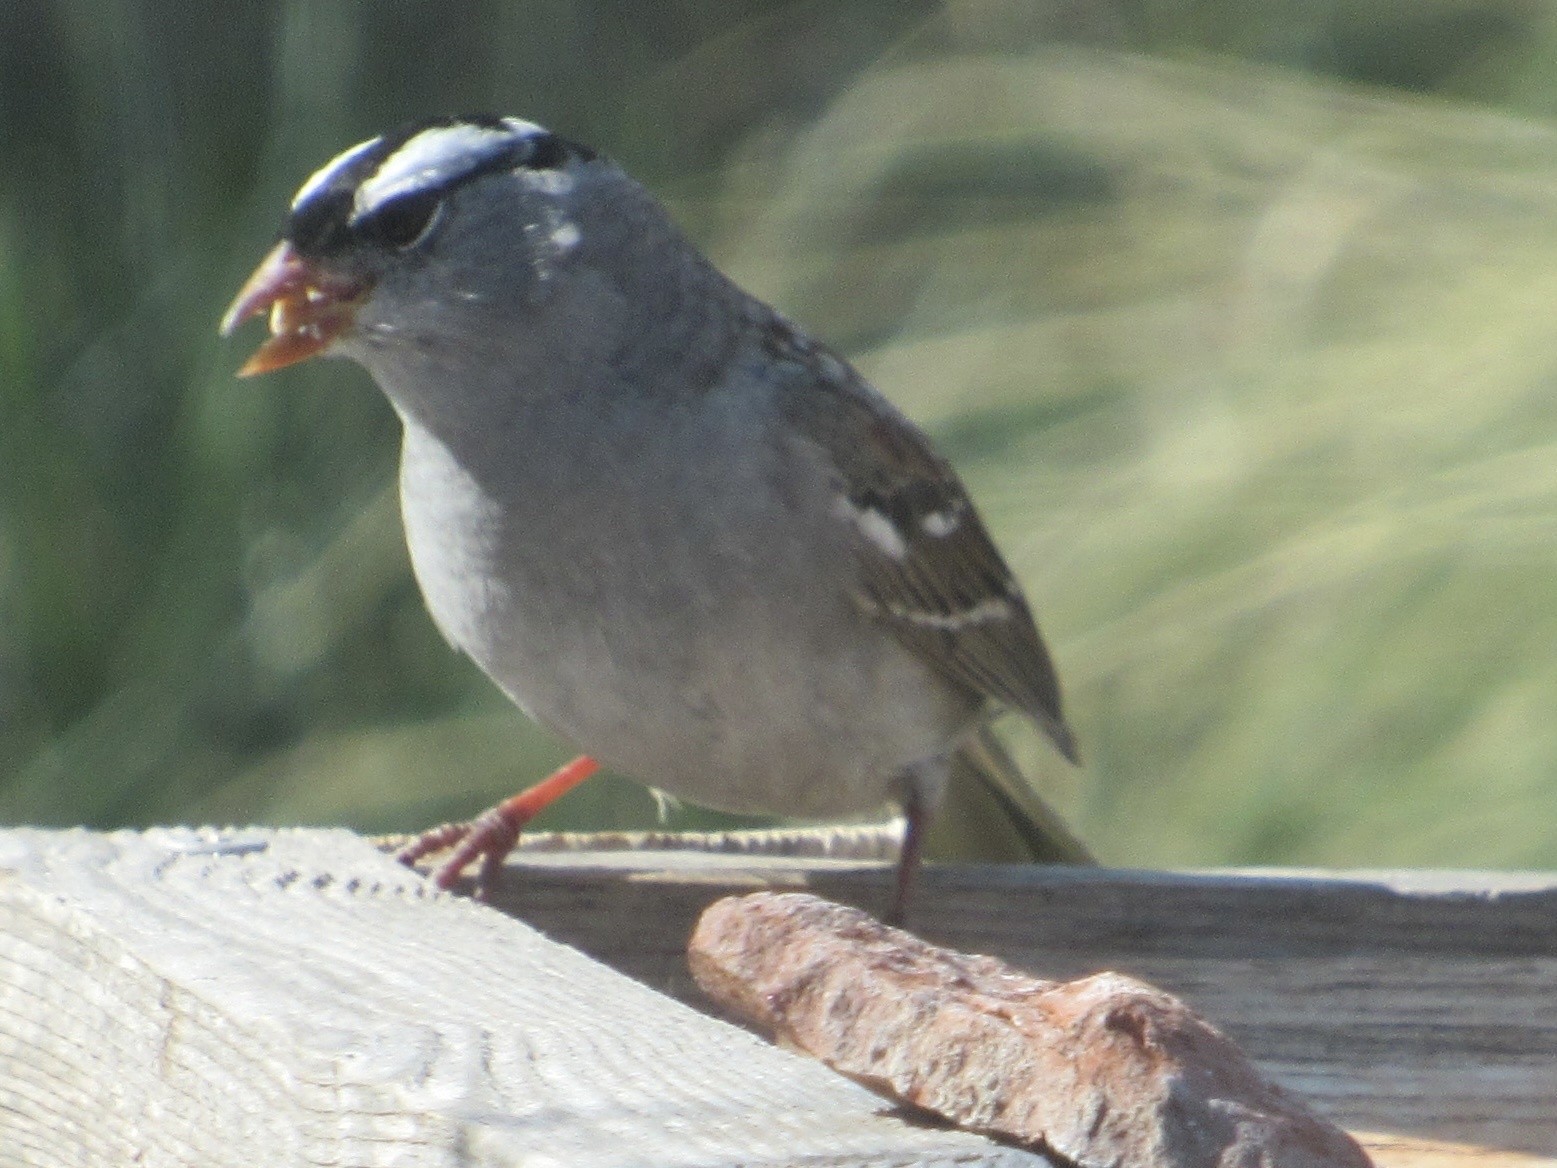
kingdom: Animalia
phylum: Chordata
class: Aves
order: Passeriformes
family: Passerellidae
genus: Zonotrichia
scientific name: Zonotrichia leucophrys
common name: White-crowned sparrow
